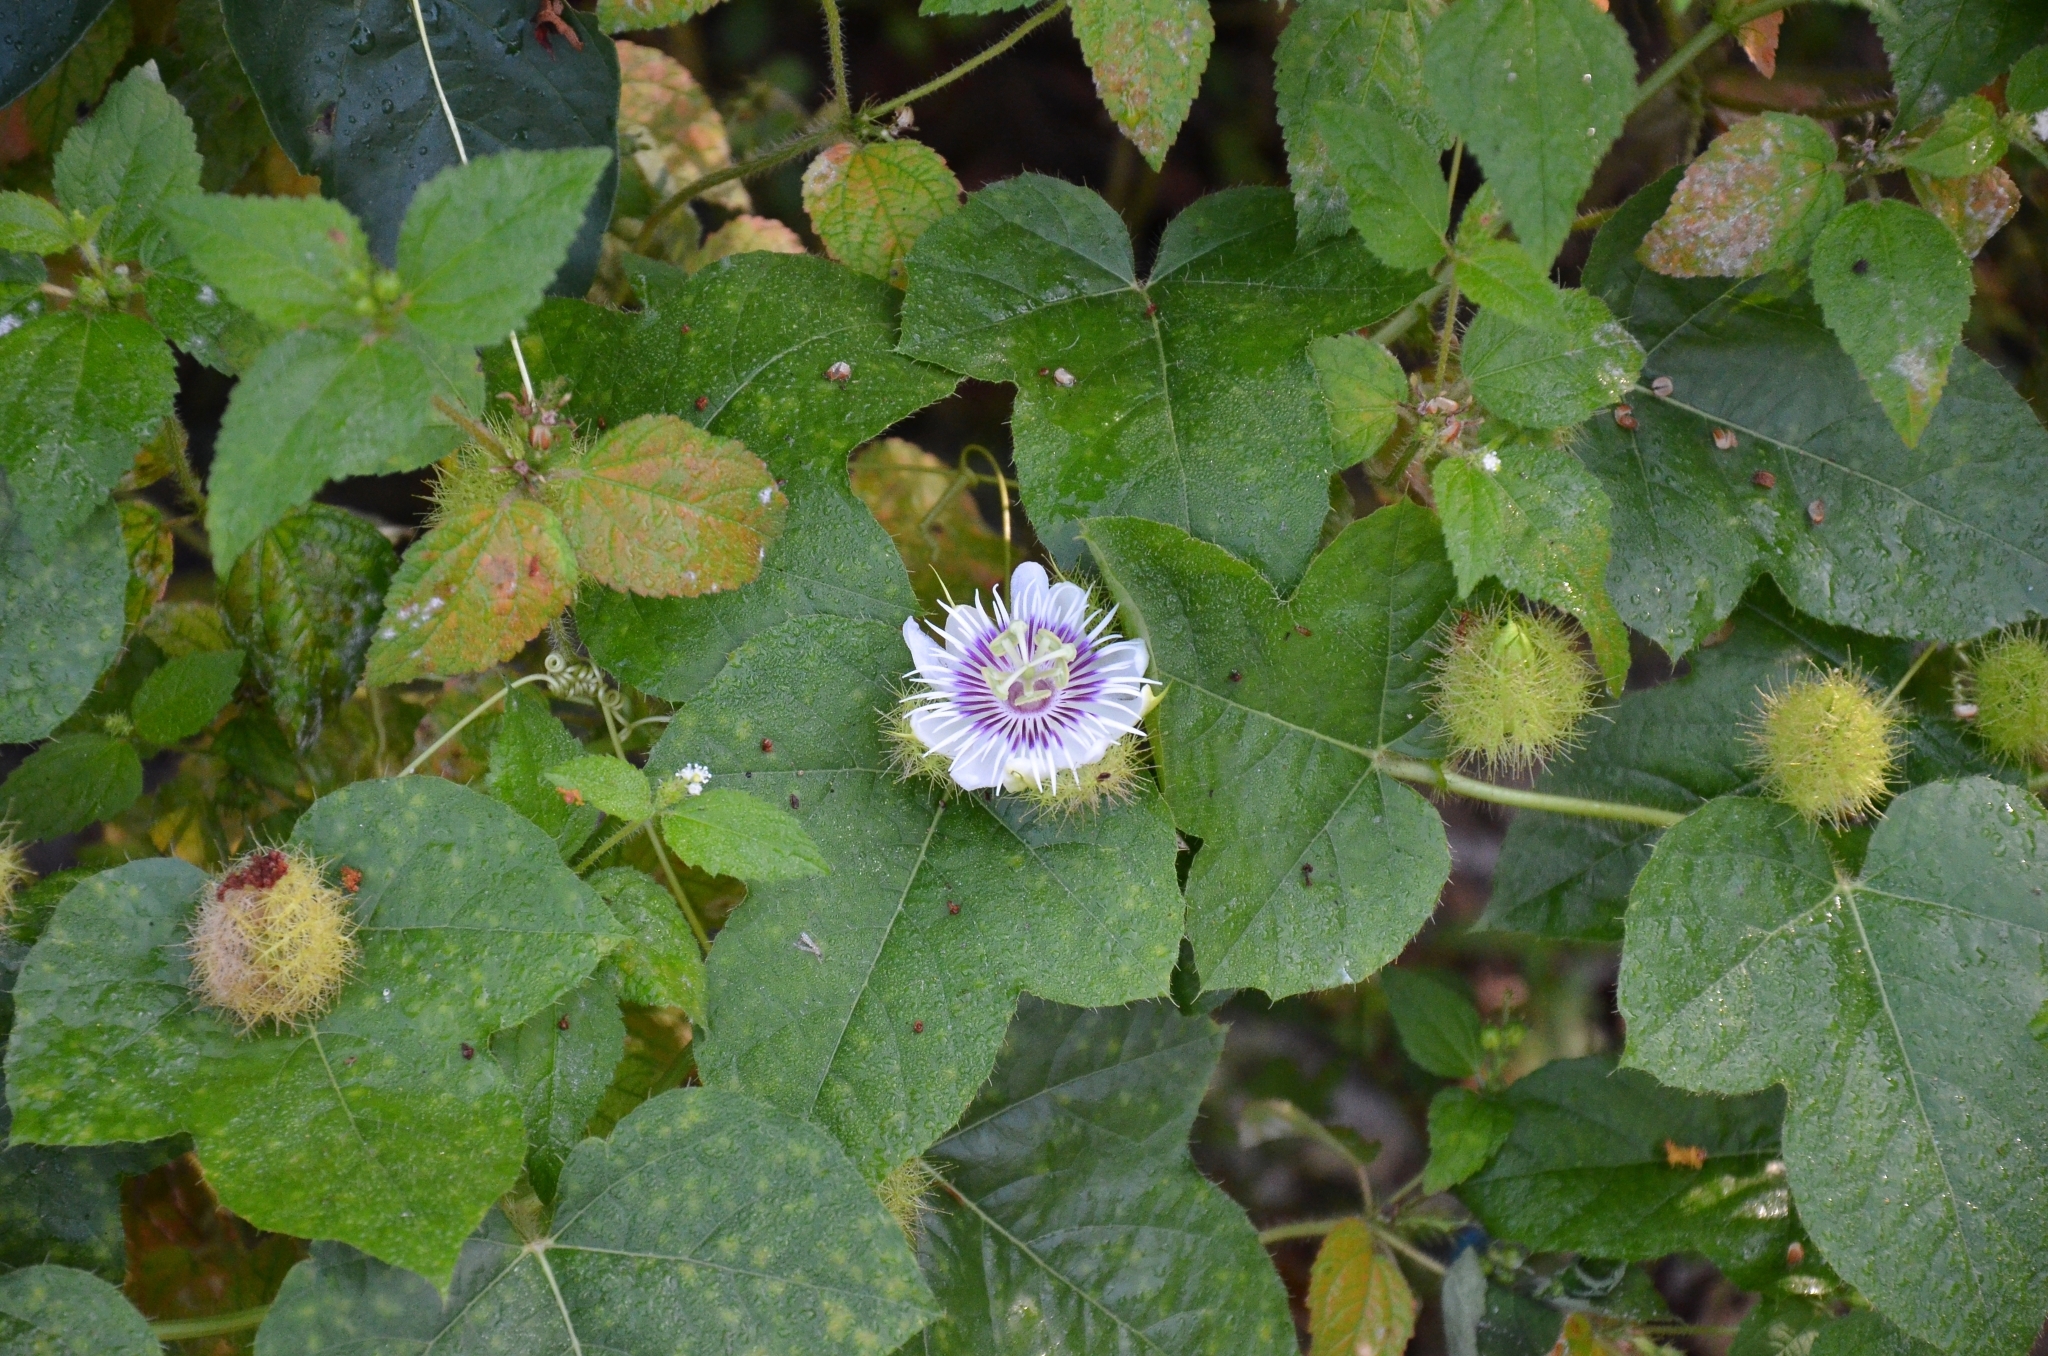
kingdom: Plantae
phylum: Tracheophyta
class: Magnoliopsida
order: Malpighiales
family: Passifloraceae
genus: Passiflora
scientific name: Passiflora vesicaria
